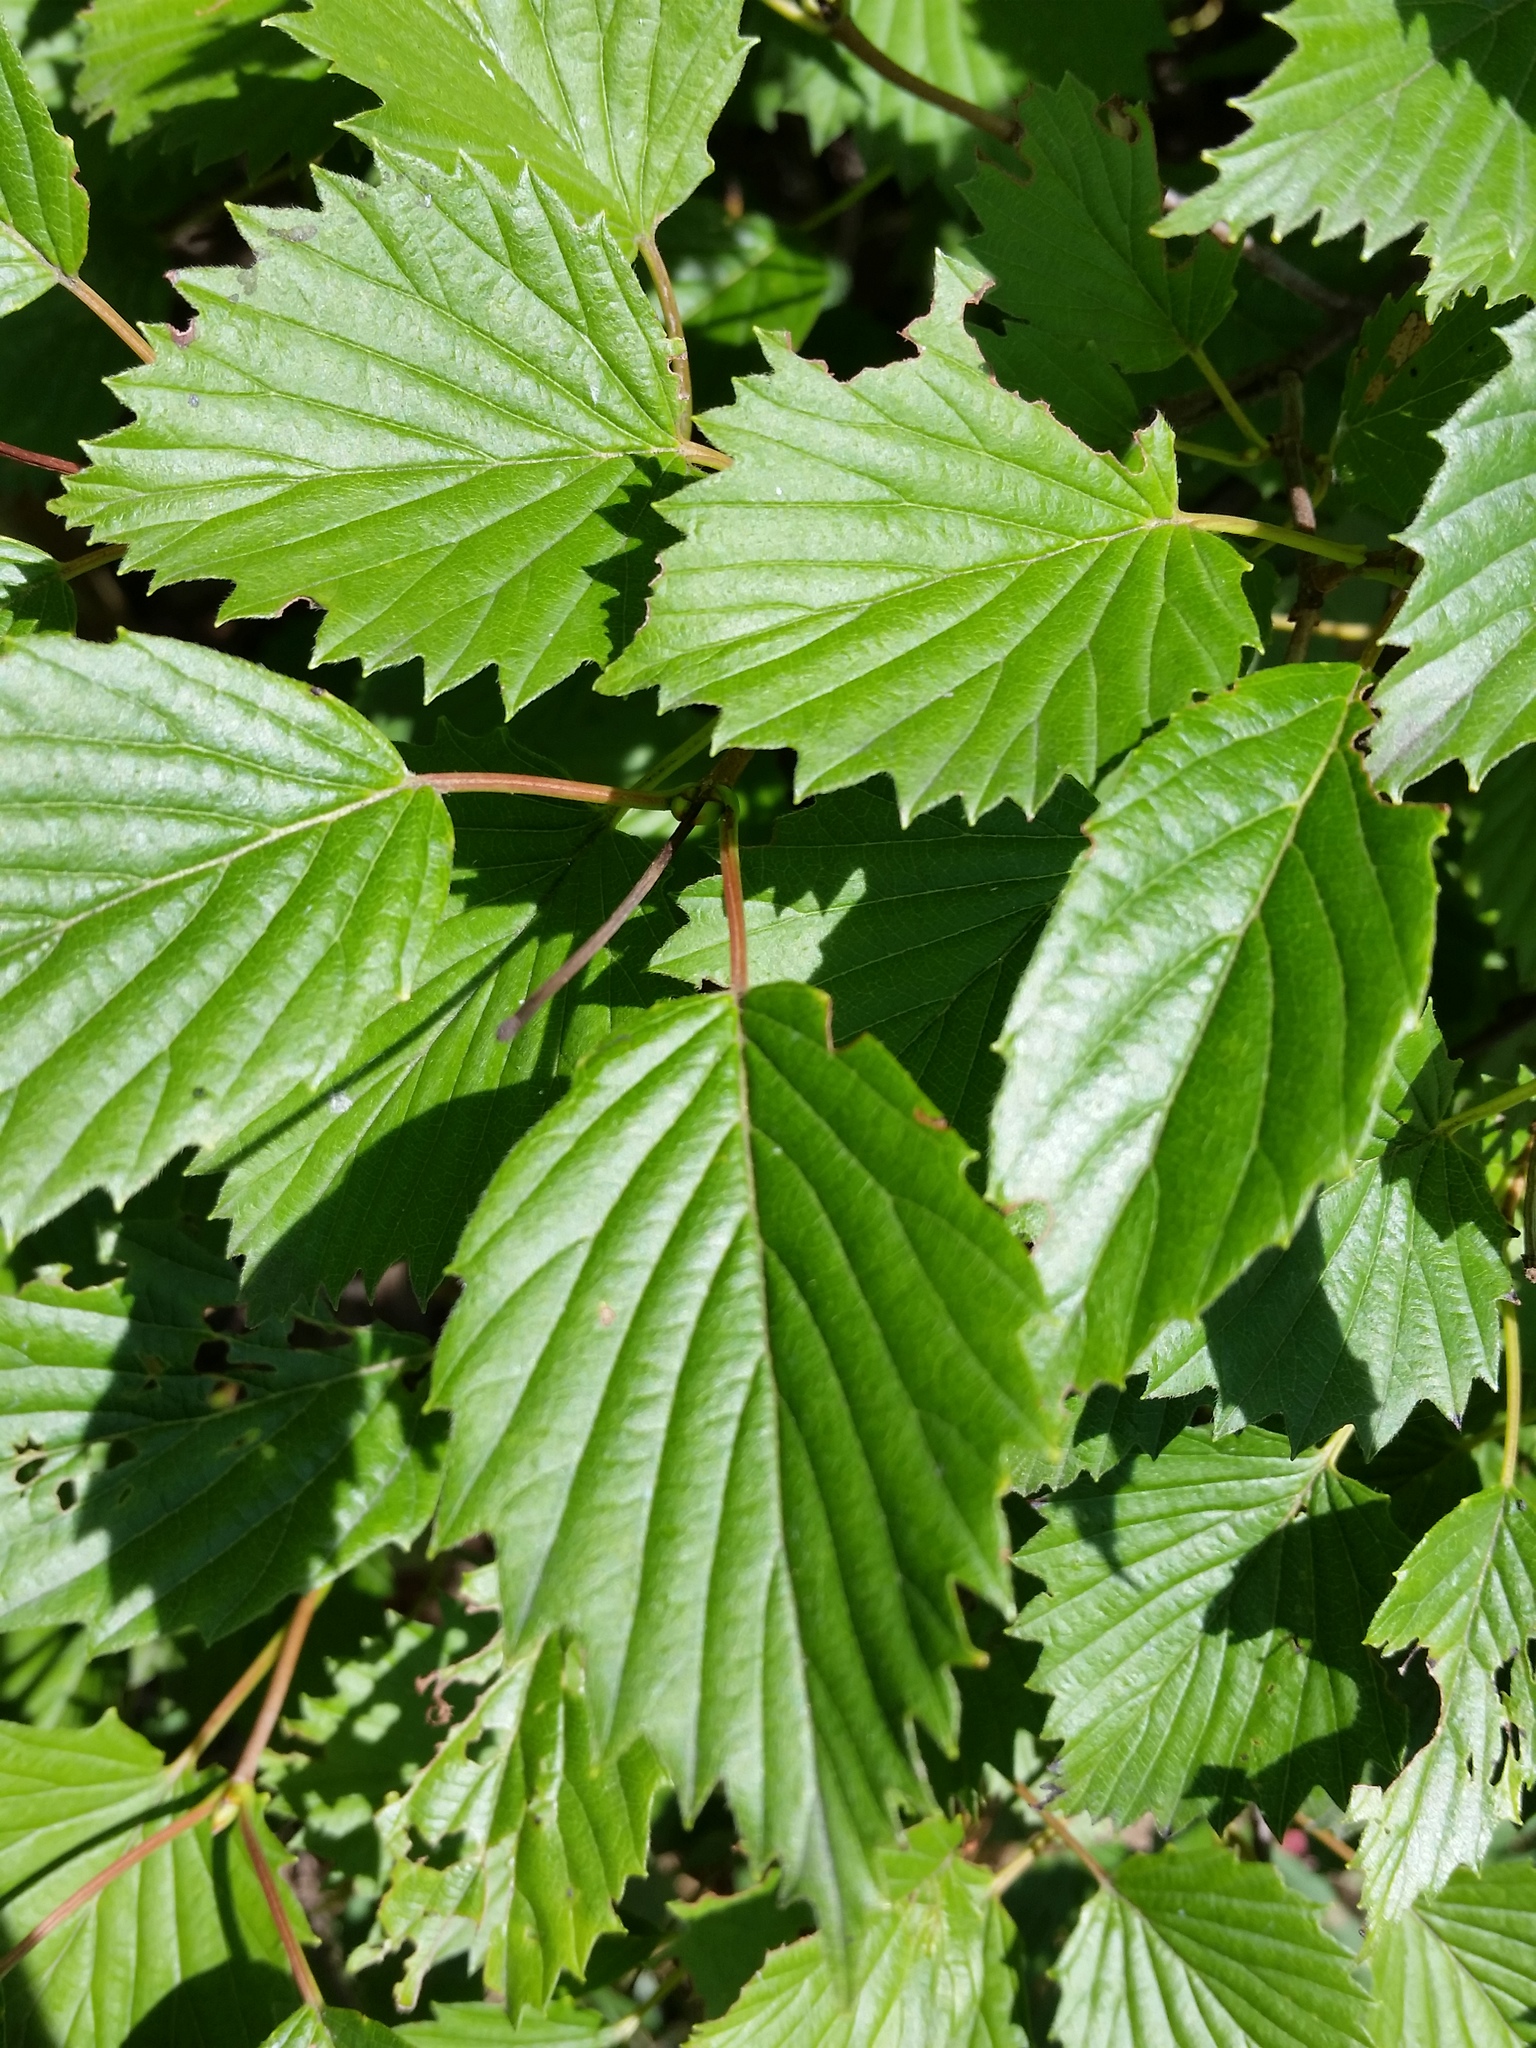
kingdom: Plantae
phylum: Tracheophyta
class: Magnoliopsida
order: Dipsacales
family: Viburnaceae
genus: Viburnum
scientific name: Viburnum recognitum
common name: Northern arrow-wood
